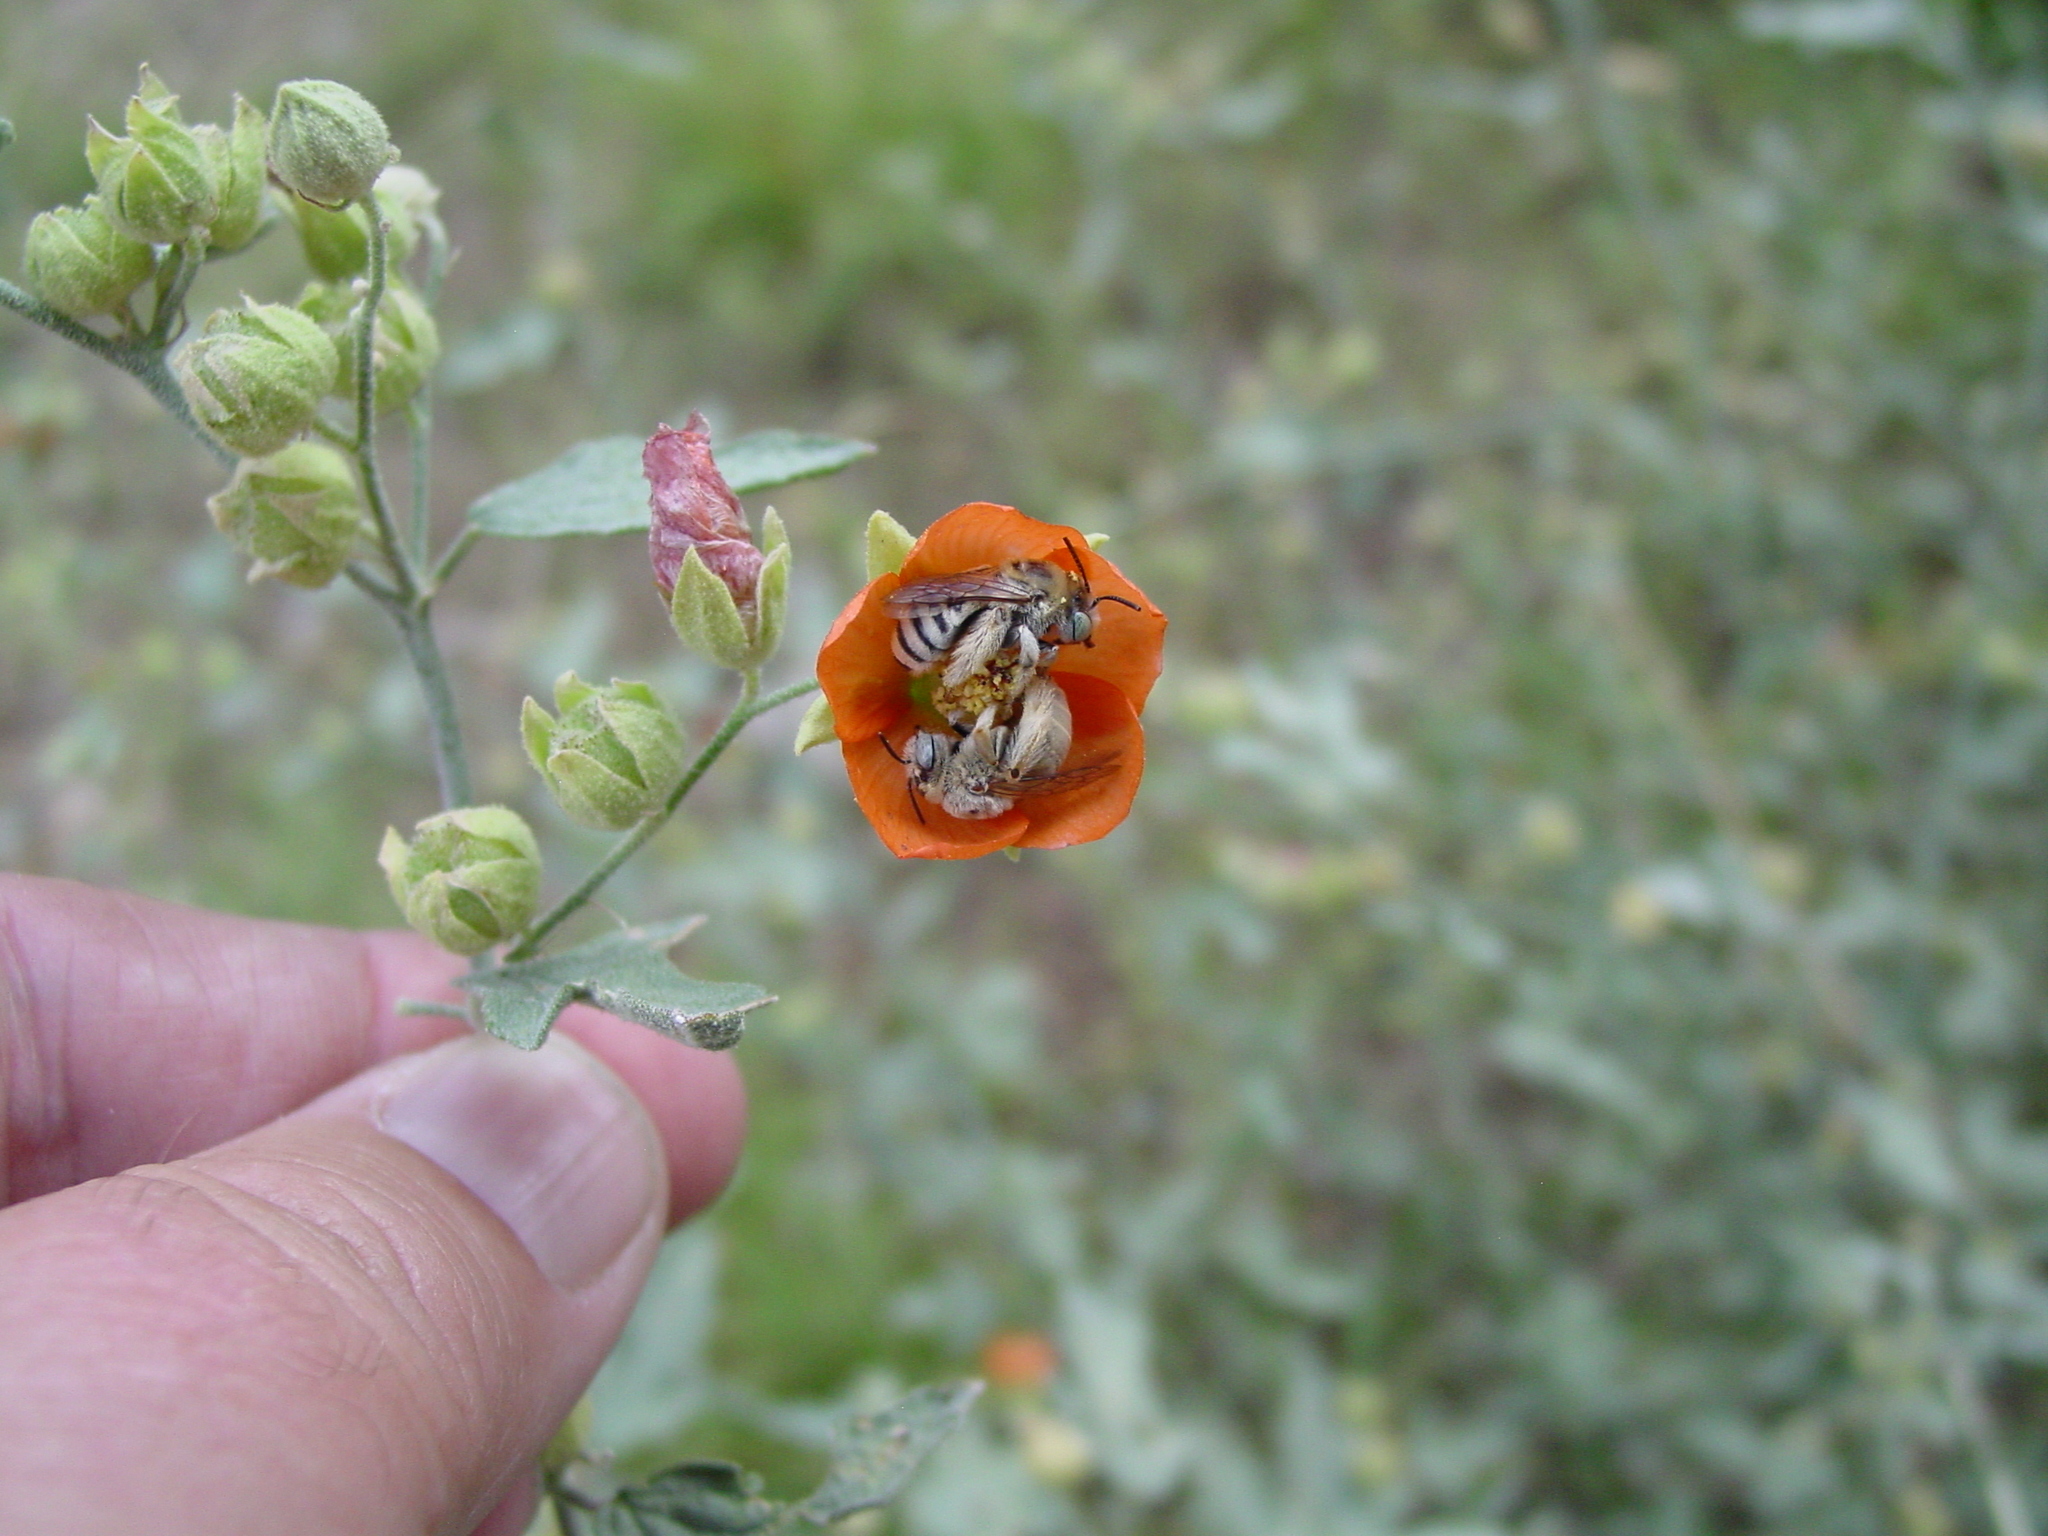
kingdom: Animalia
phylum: Arthropoda
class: Insecta
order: Hymenoptera
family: Apidae
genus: Melissodes
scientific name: Melissodes tristis
